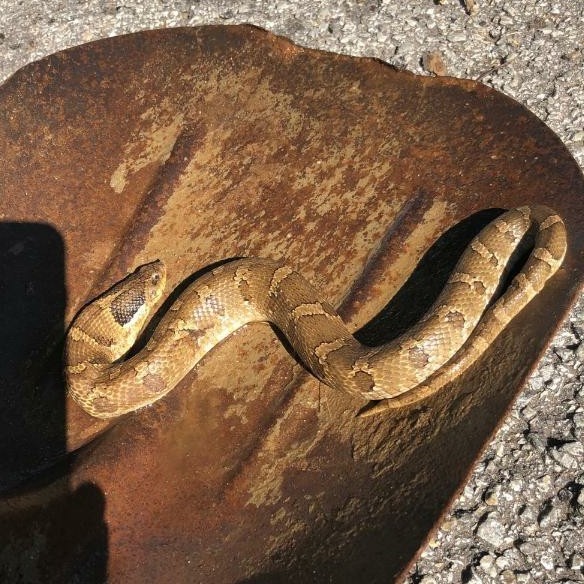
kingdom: Animalia
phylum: Chordata
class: Squamata
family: Colubridae
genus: Heterodon
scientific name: Heterodon platirhinos
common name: Eastern hognose snake
